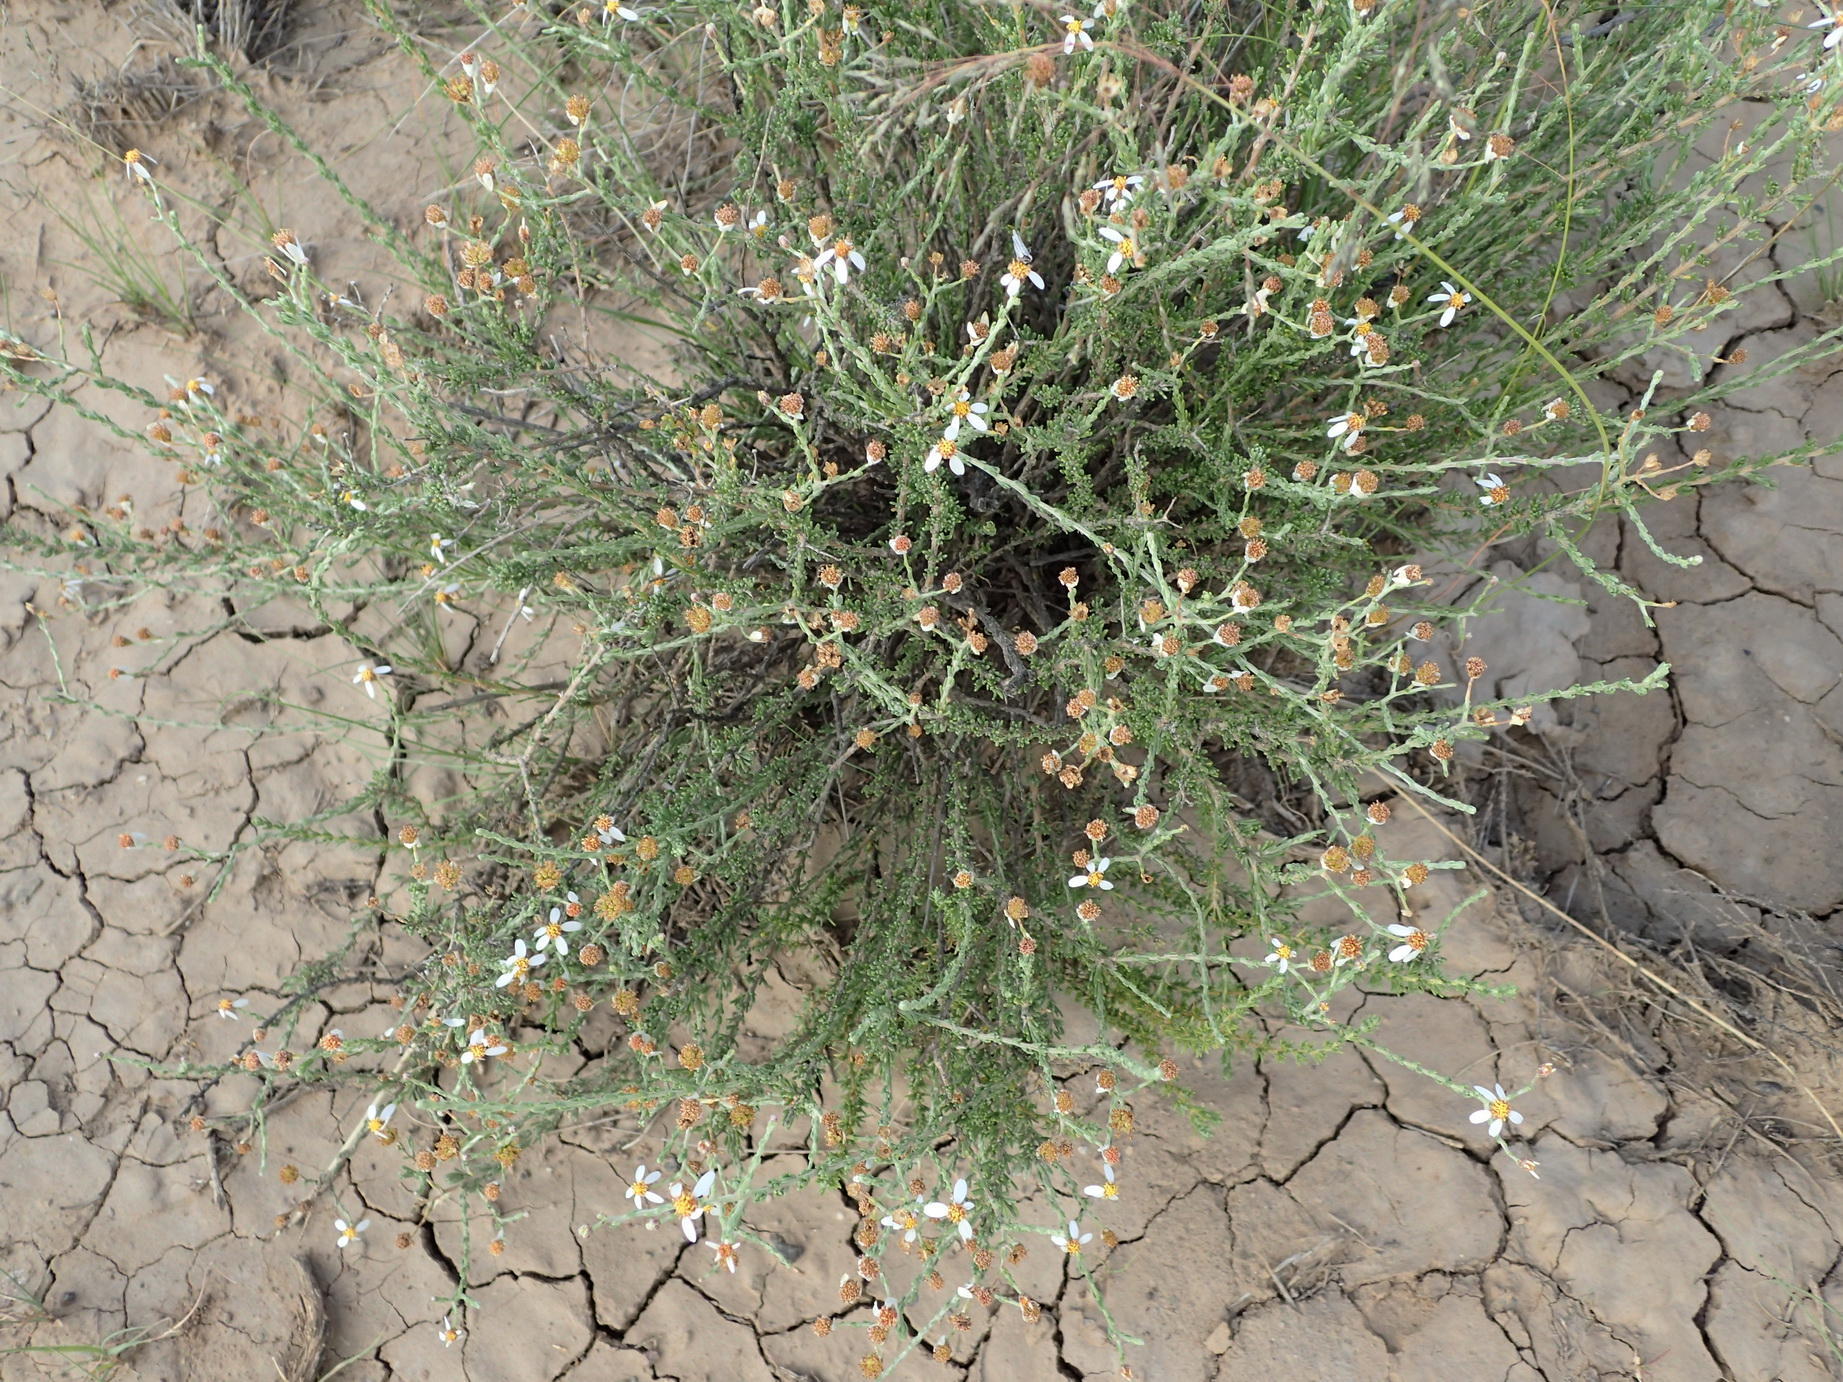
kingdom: Plantae
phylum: Tracheophyta
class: Magnoliopsida
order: Asterales
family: Asteraceae
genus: Phymaspermum
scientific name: Phymaspermum thymelaeoides
